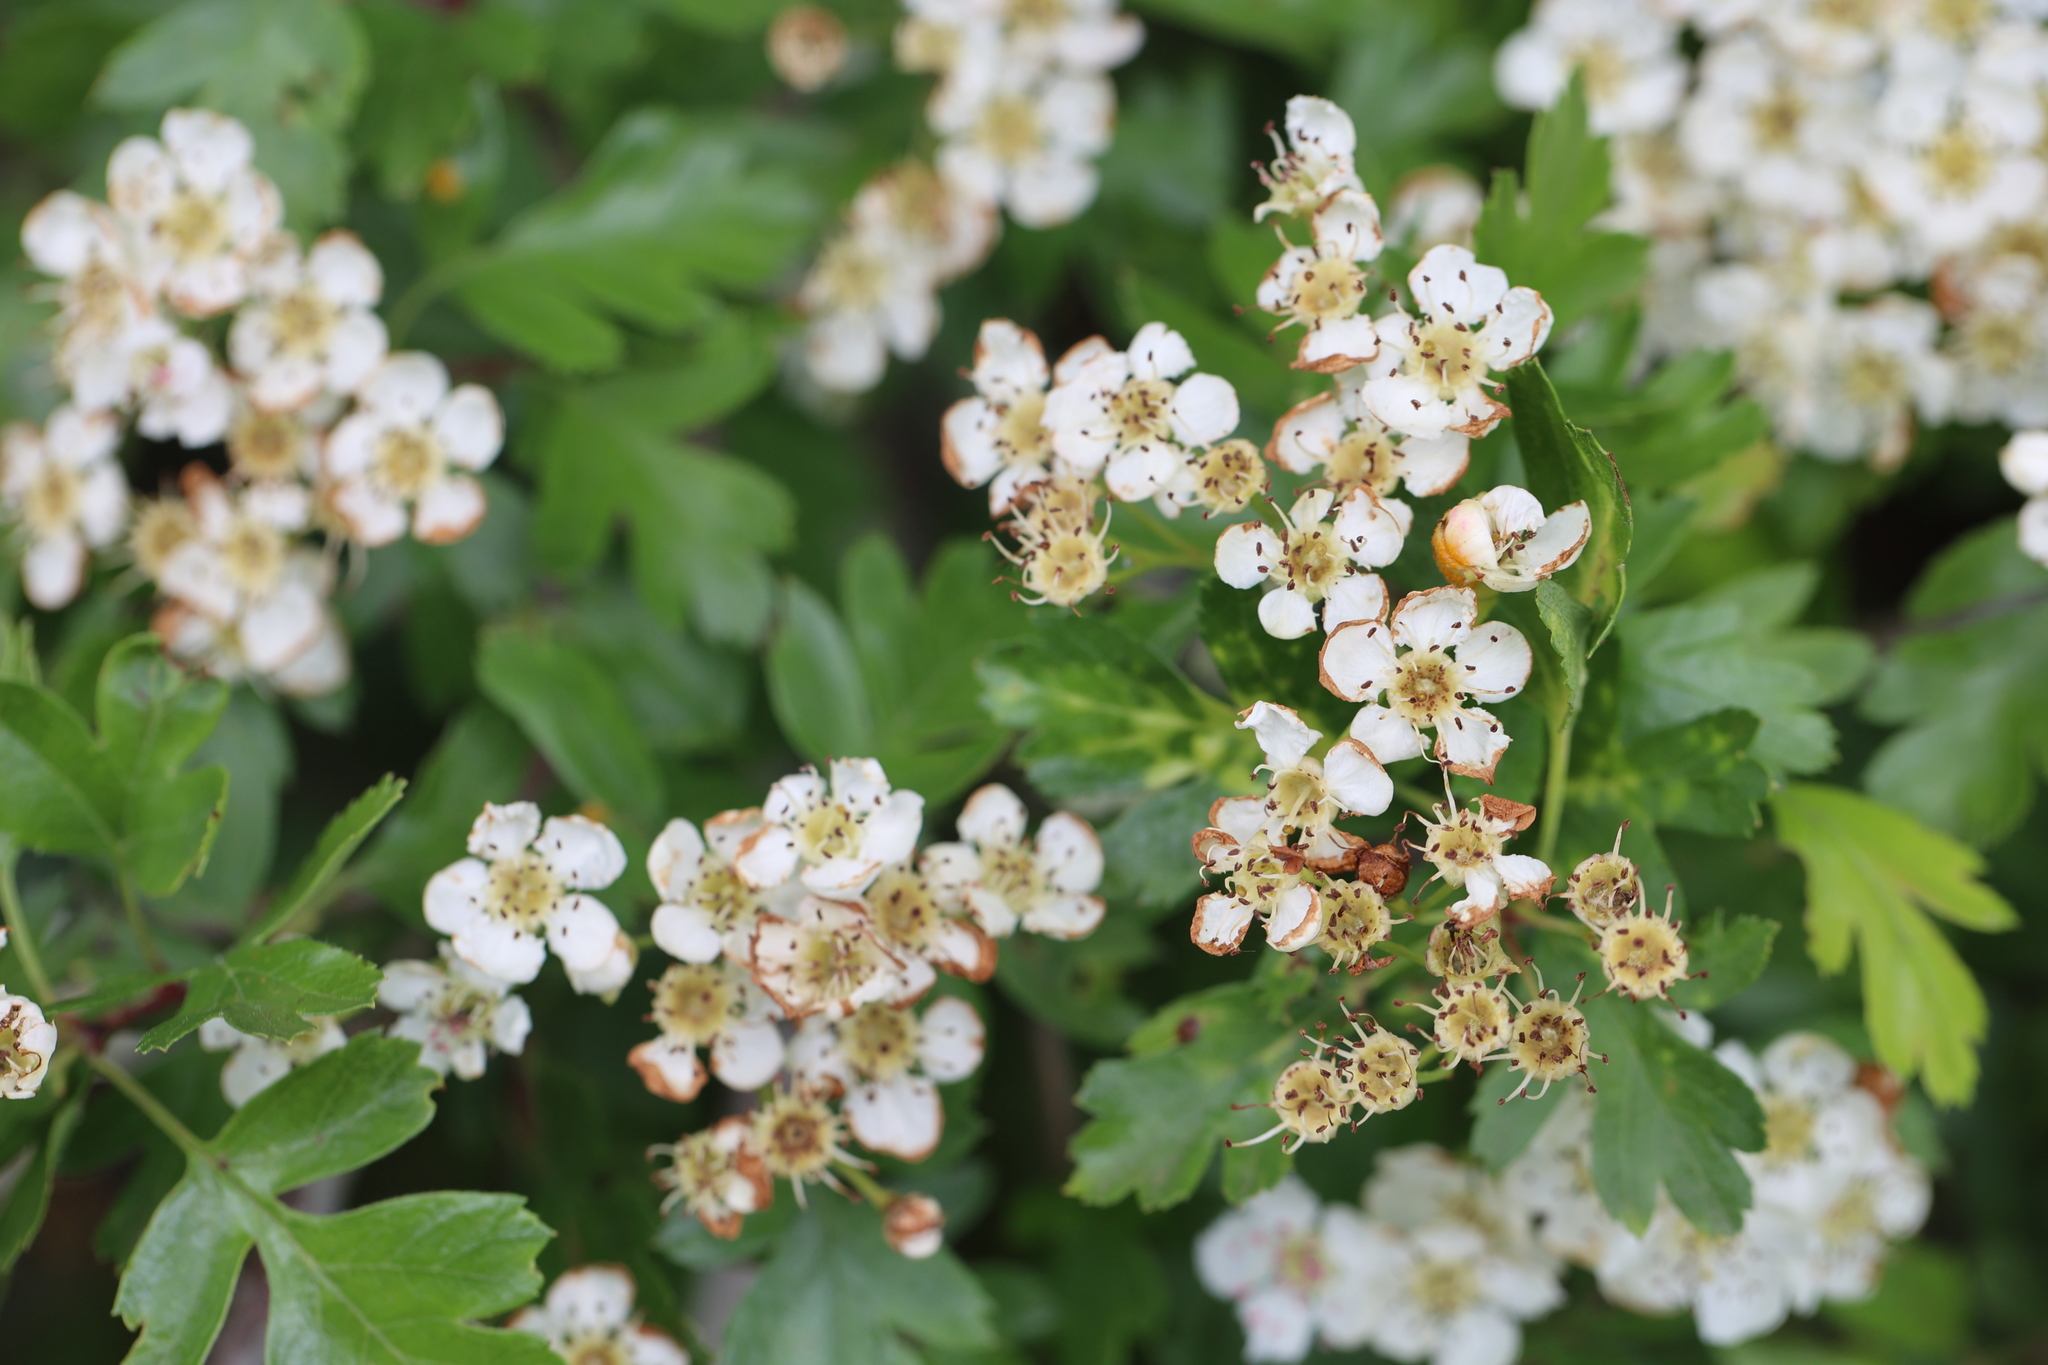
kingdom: Plantae
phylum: Tracheophyta
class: Magnoliopsida
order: Rosales
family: Rosaceae
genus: Crataegus
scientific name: Crataegus monogyna
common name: Hawthorn
